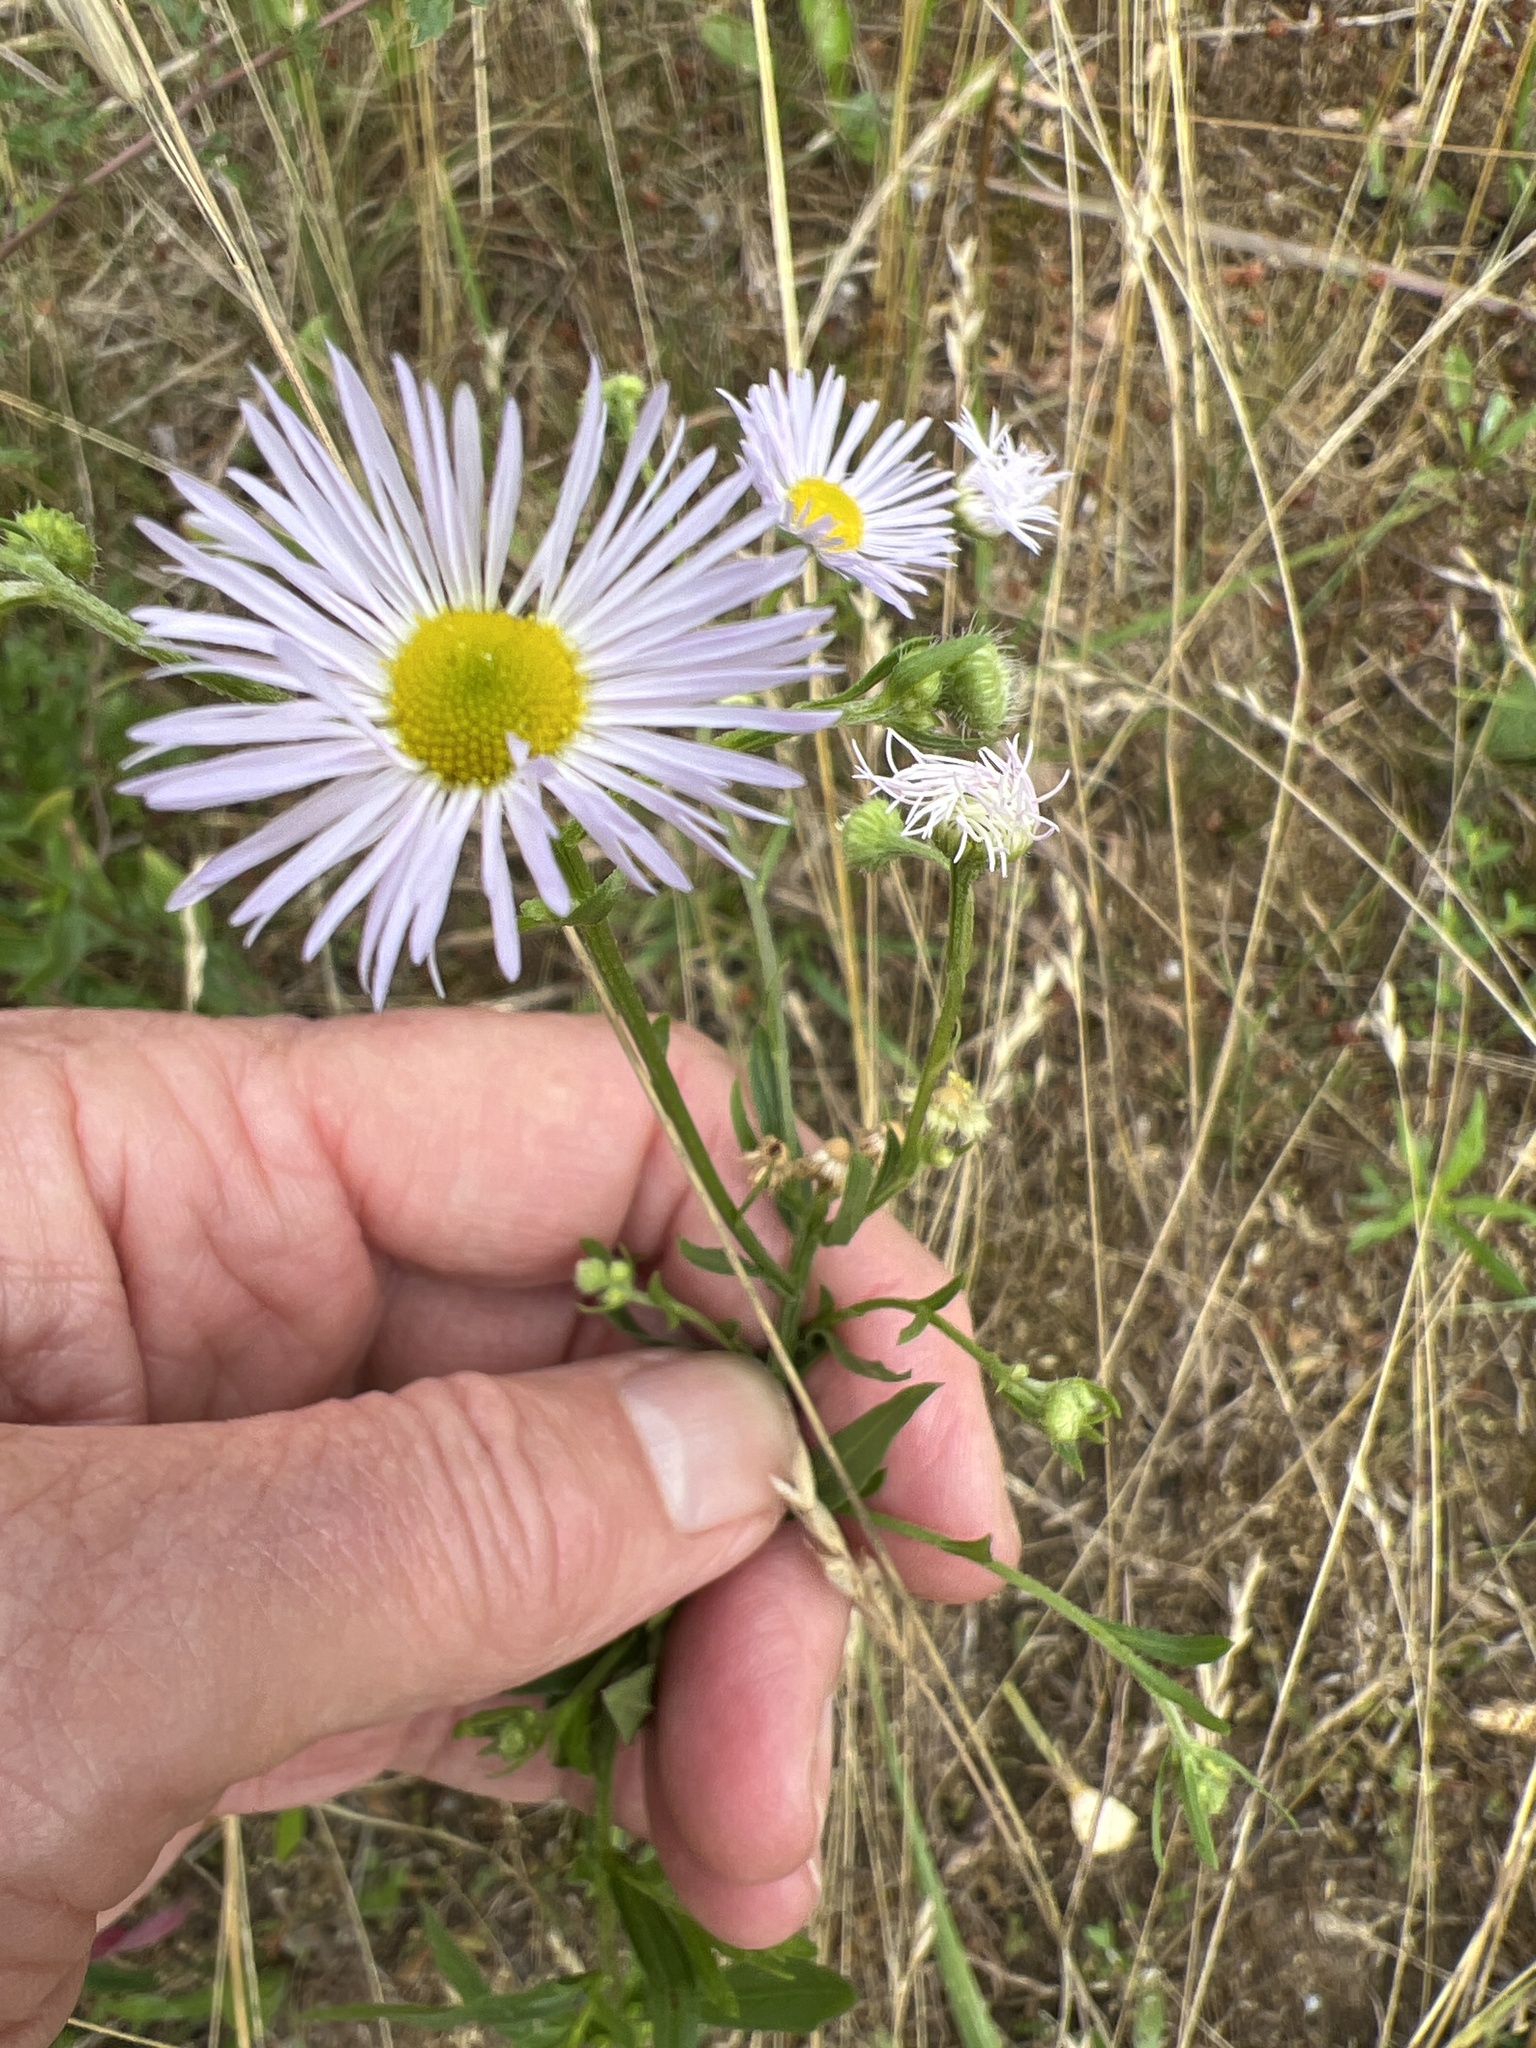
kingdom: Plantae
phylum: Tracheophyta
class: Magnoliopsida
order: Asterales
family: Asteraceae
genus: Erigeron
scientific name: Erigeron annuus
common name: Tall fleabane
